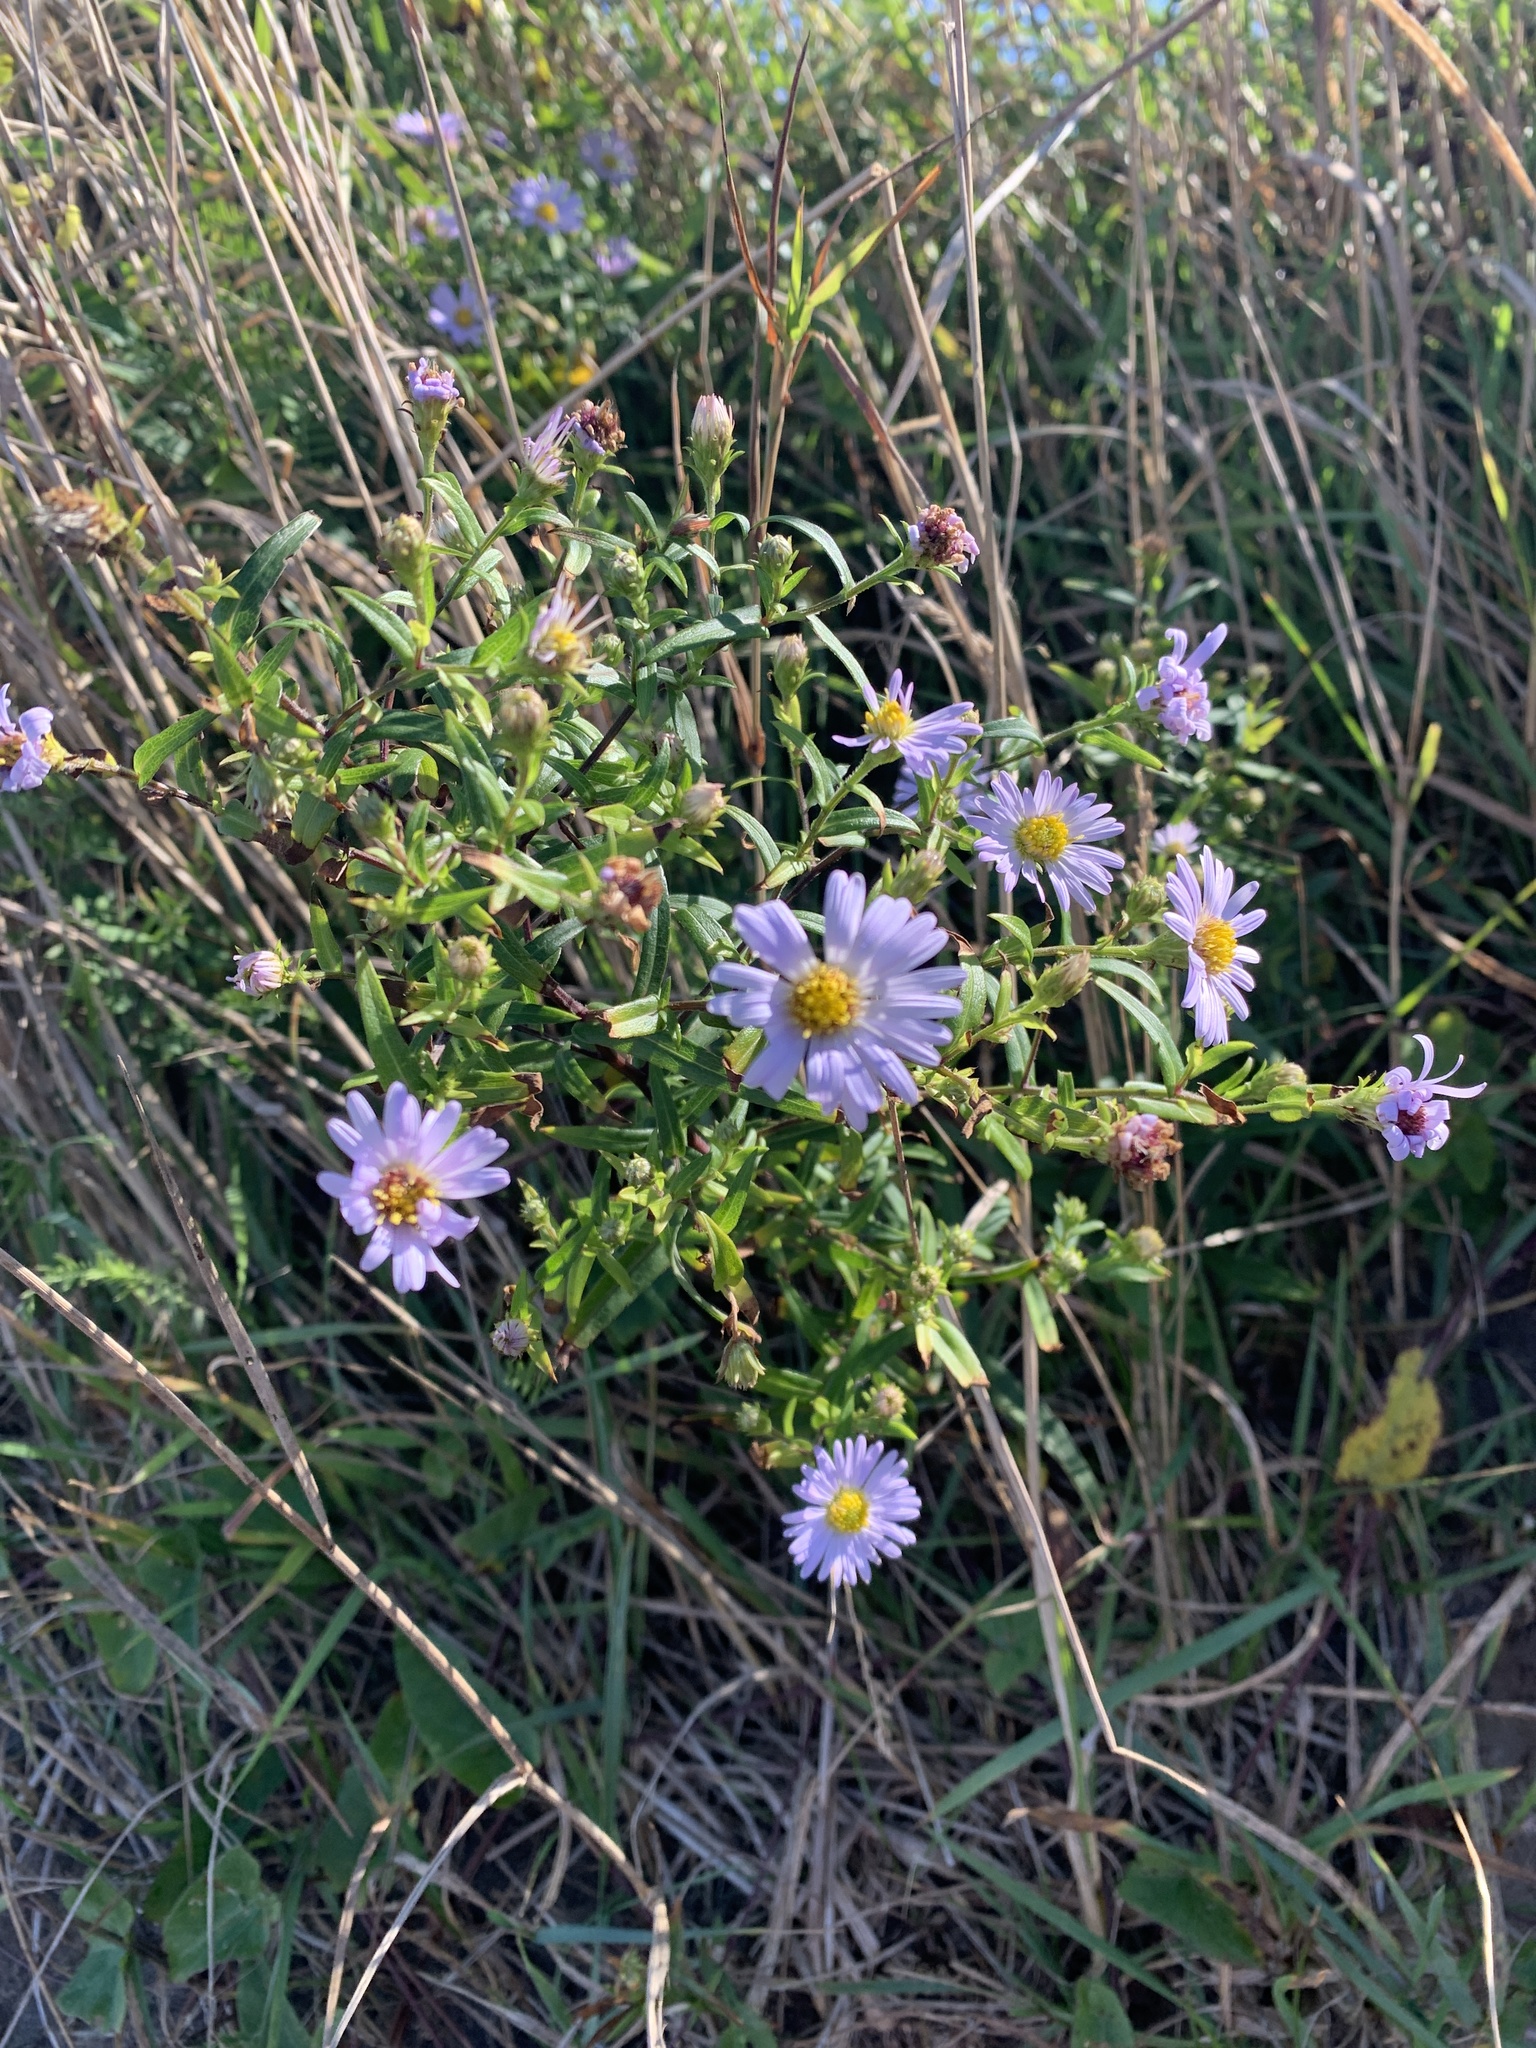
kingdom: Plantae
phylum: Tracheophyta
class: Magnoliopsida
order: Asterales
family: Asteraceae
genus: Symphyotrichum
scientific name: Symphyotrichum novi-belgii
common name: Michaelmas daisy
